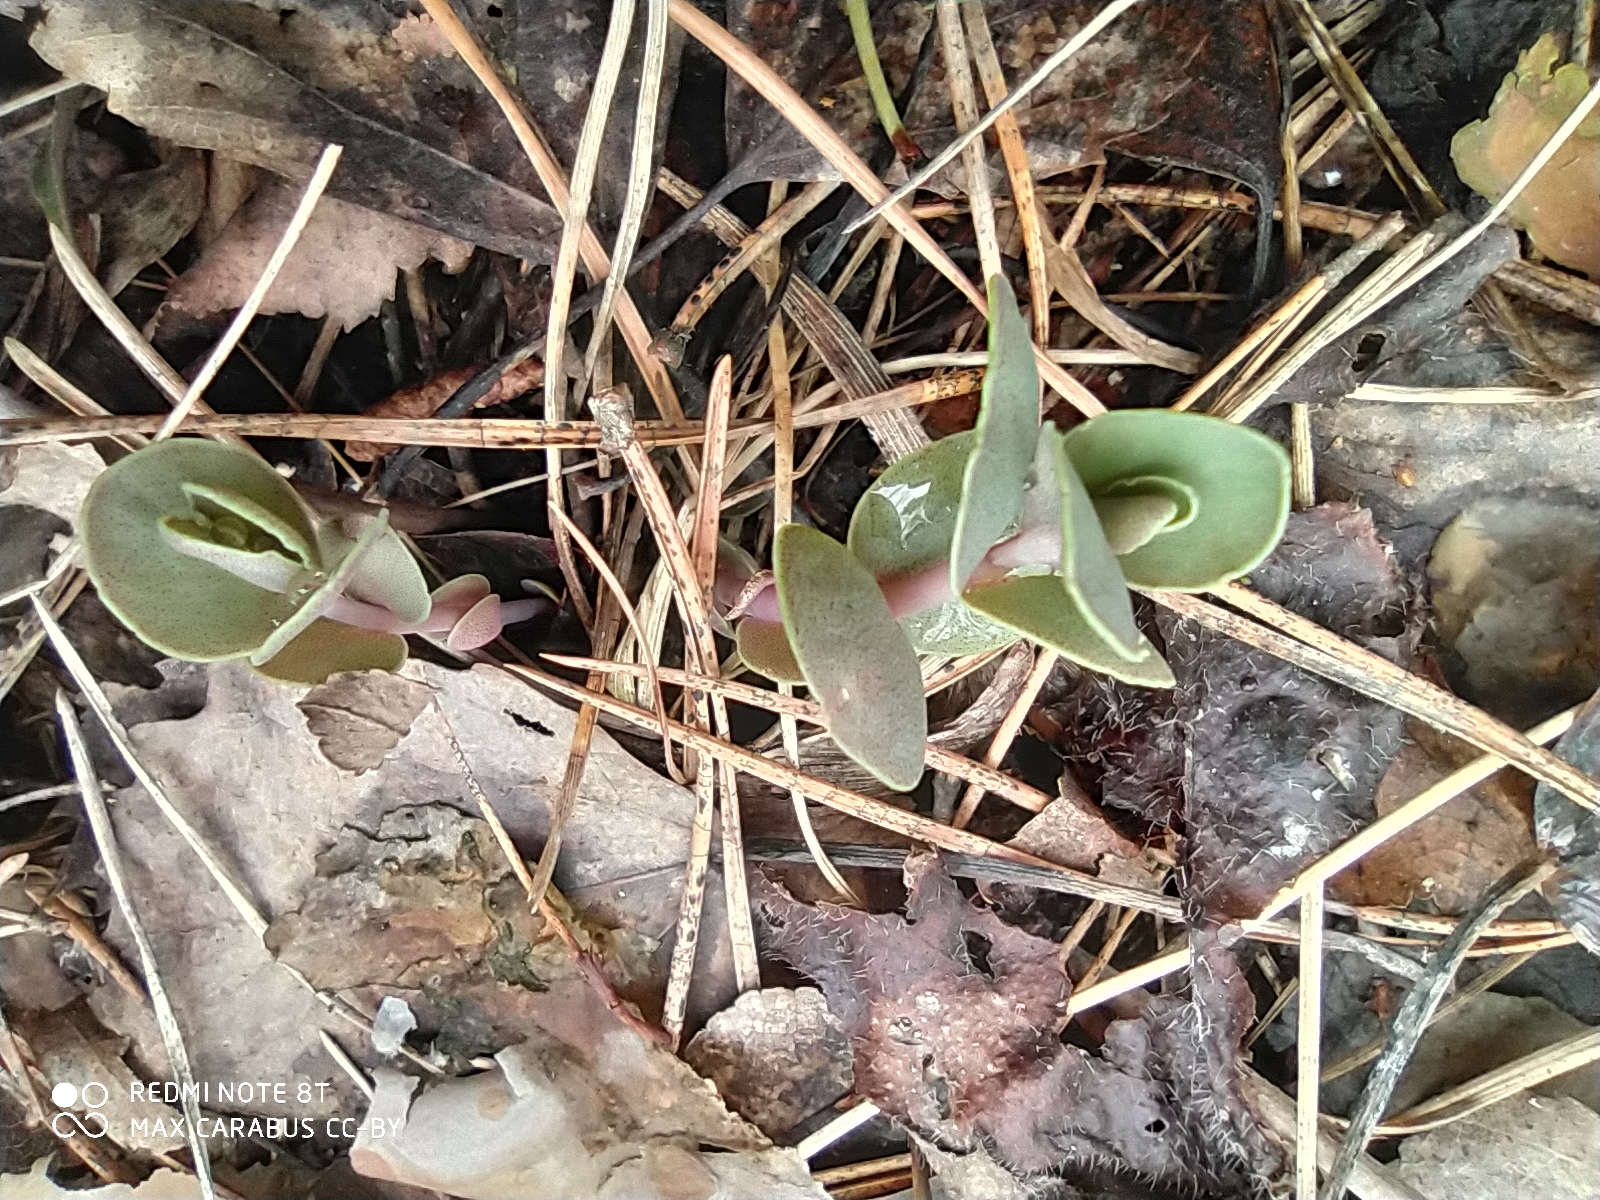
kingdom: Plantae
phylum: Tracheophyta
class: Magnoliopsida
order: Saxifragales
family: Crassulaceae
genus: Hylotelephium
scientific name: Hylotelephium maximum
